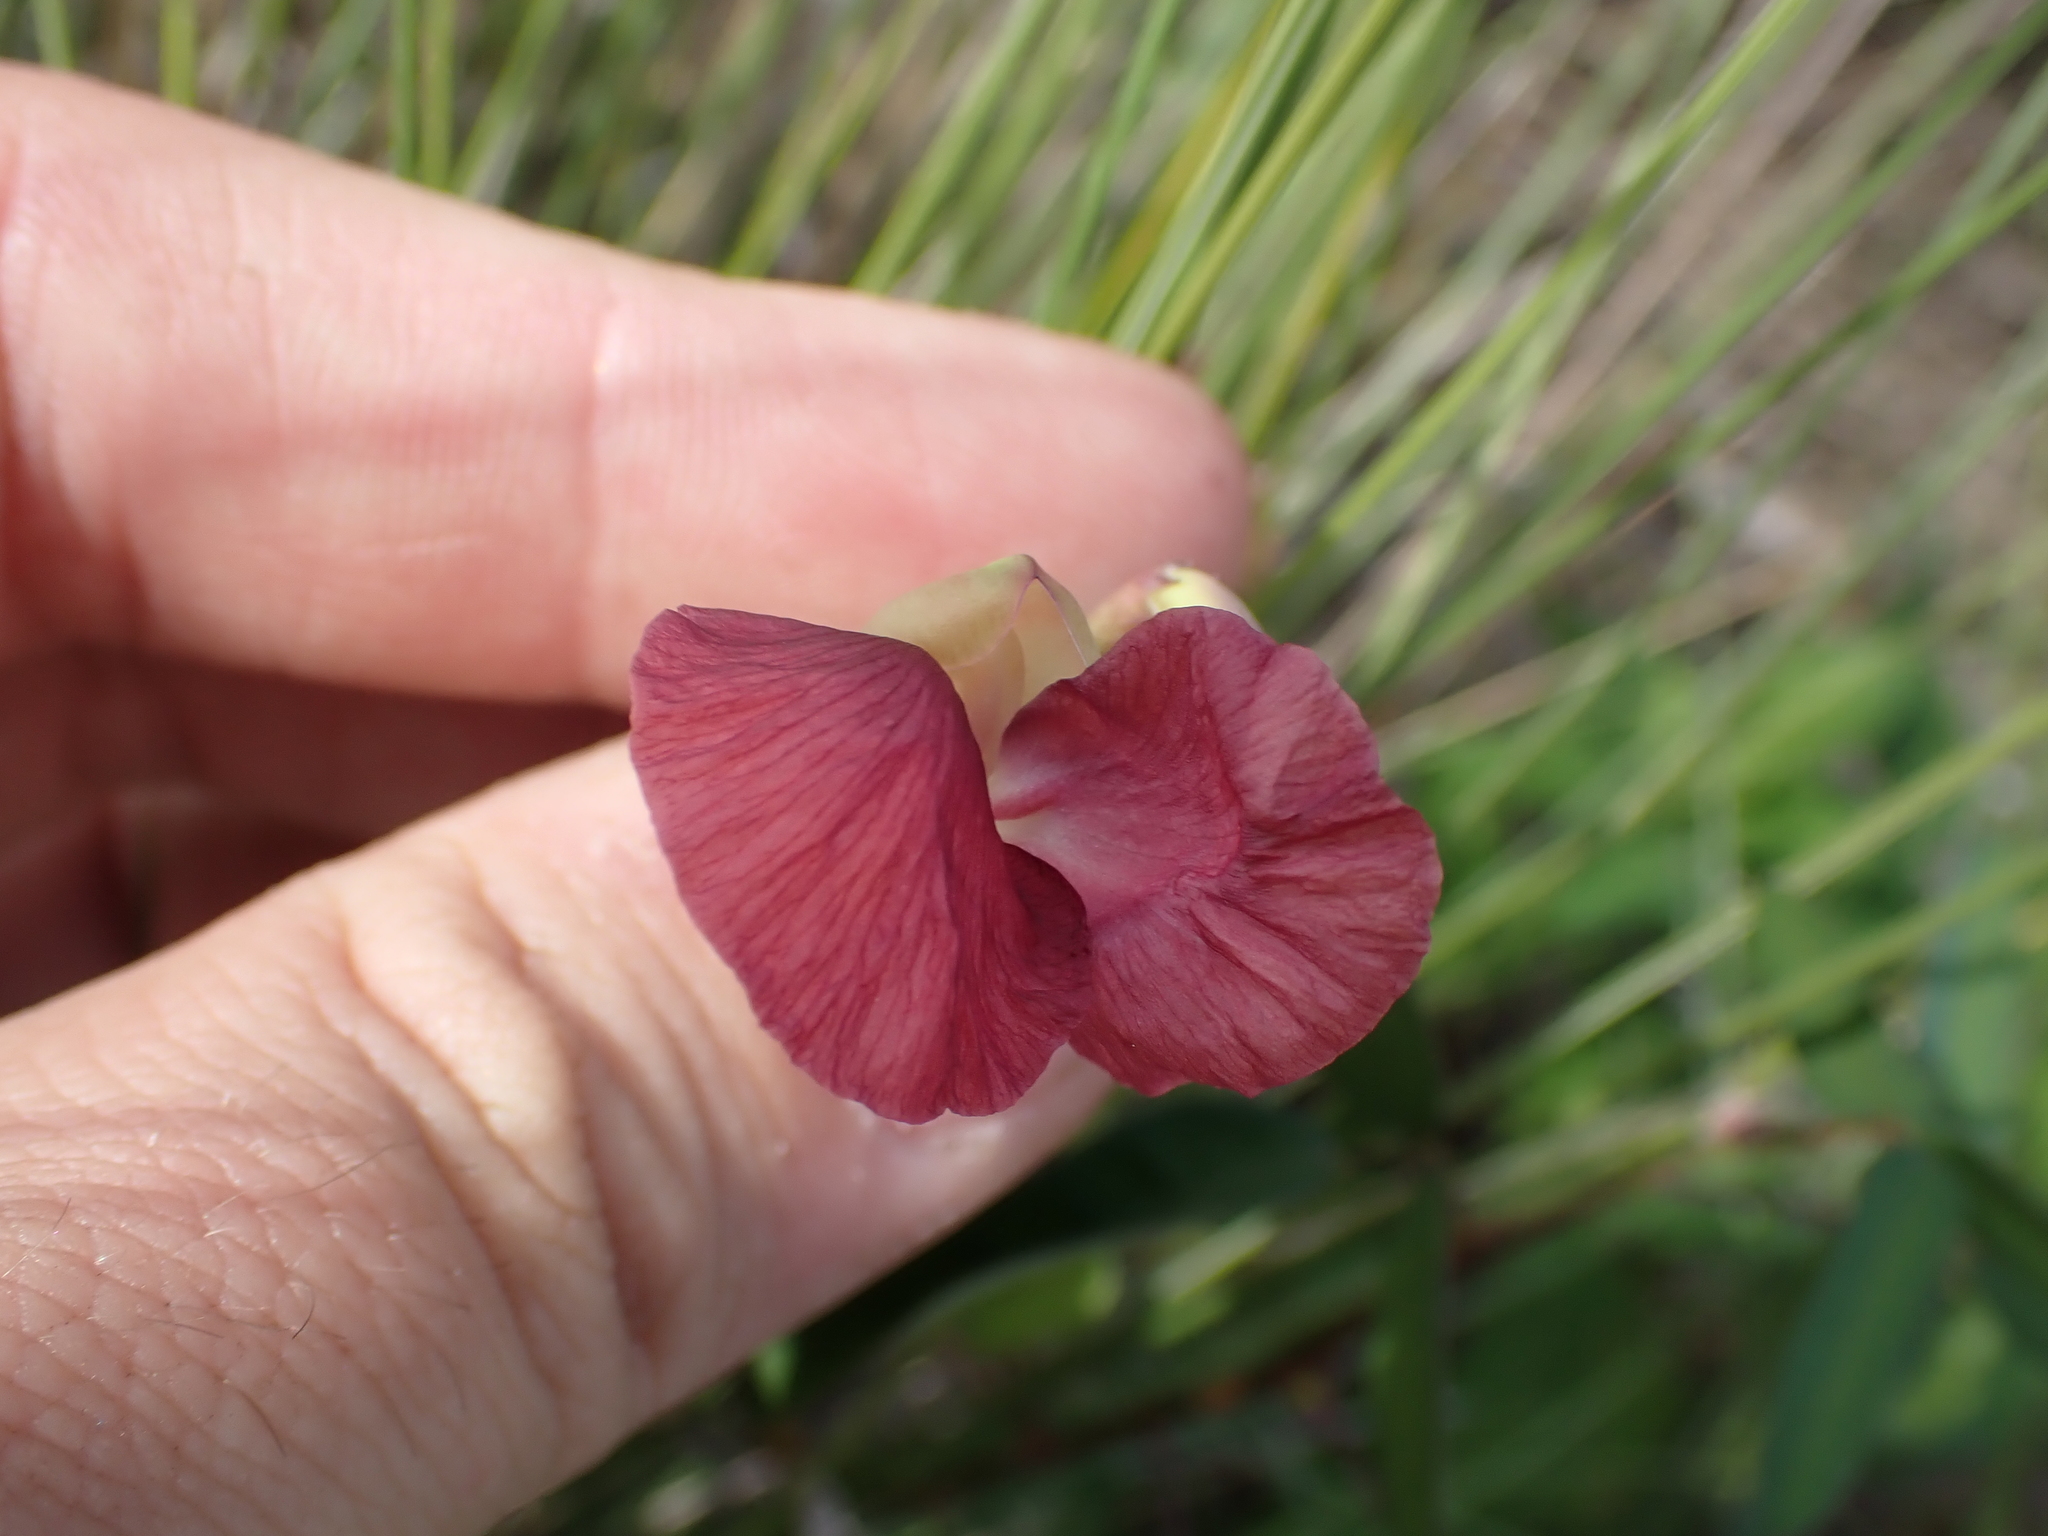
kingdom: Plantae
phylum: Tracheophyta
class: Magnoliopsida
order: Fabales
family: Fabaceae
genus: Macroptilium
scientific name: Macroptilium lathyroides
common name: Wild bushbean
